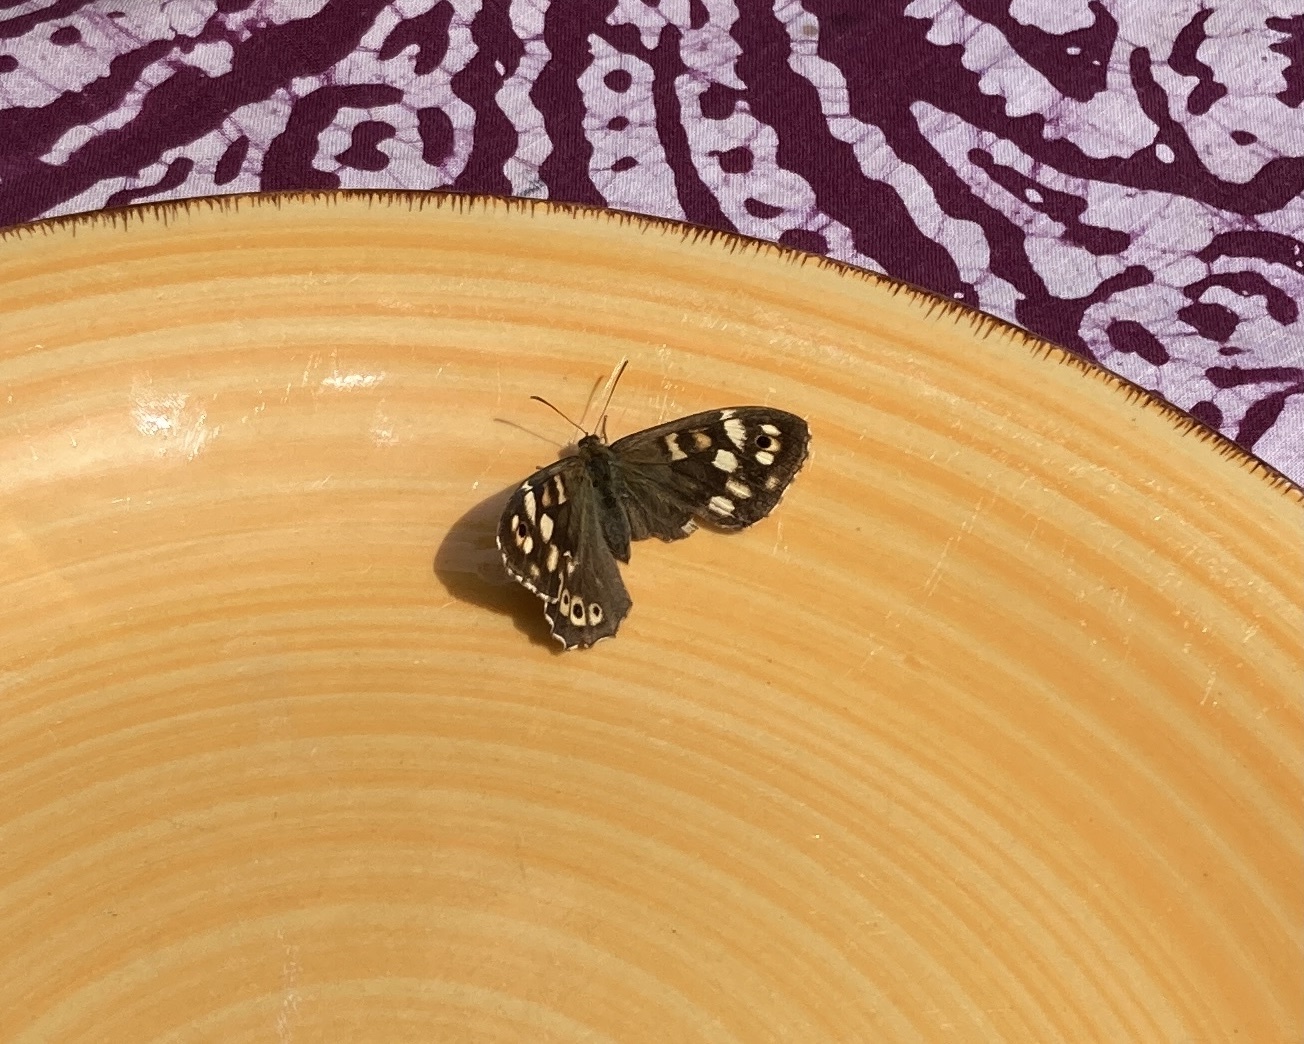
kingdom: Animalia
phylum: Arthropoda
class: Insecta
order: Lepidoptera
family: Nymphalidae
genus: Pararge
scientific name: Pararge aegeria
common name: Speckled wood
